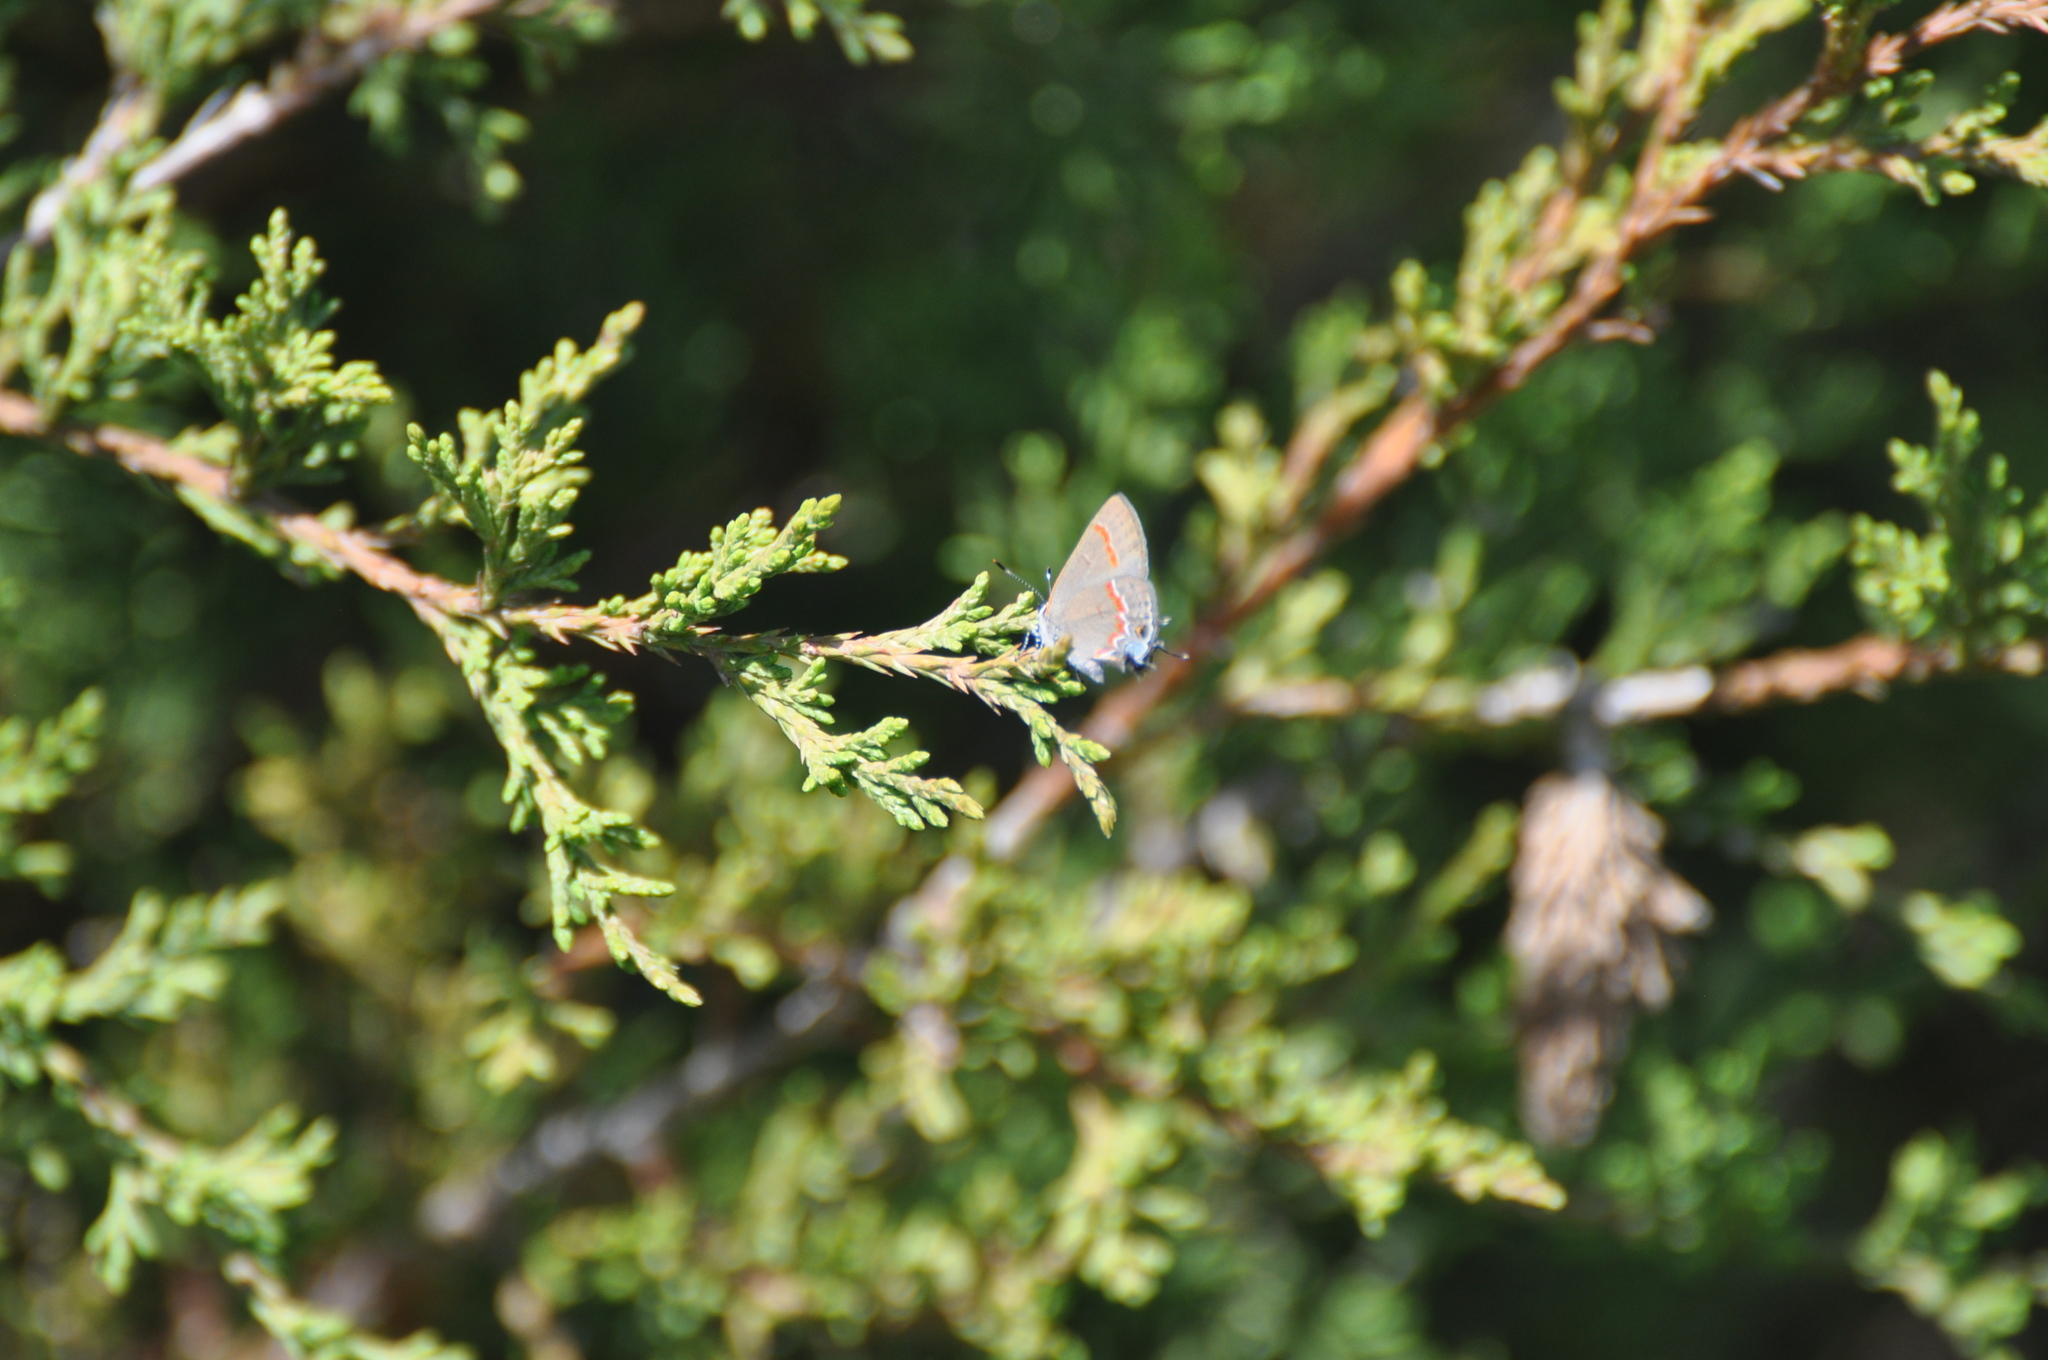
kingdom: Animalia
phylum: Arthropoda
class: Insecta
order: Lepidoptera
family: Lycaenidae
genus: Calycopis
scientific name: Calycopis cecrops
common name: Red-banded hairstreak
